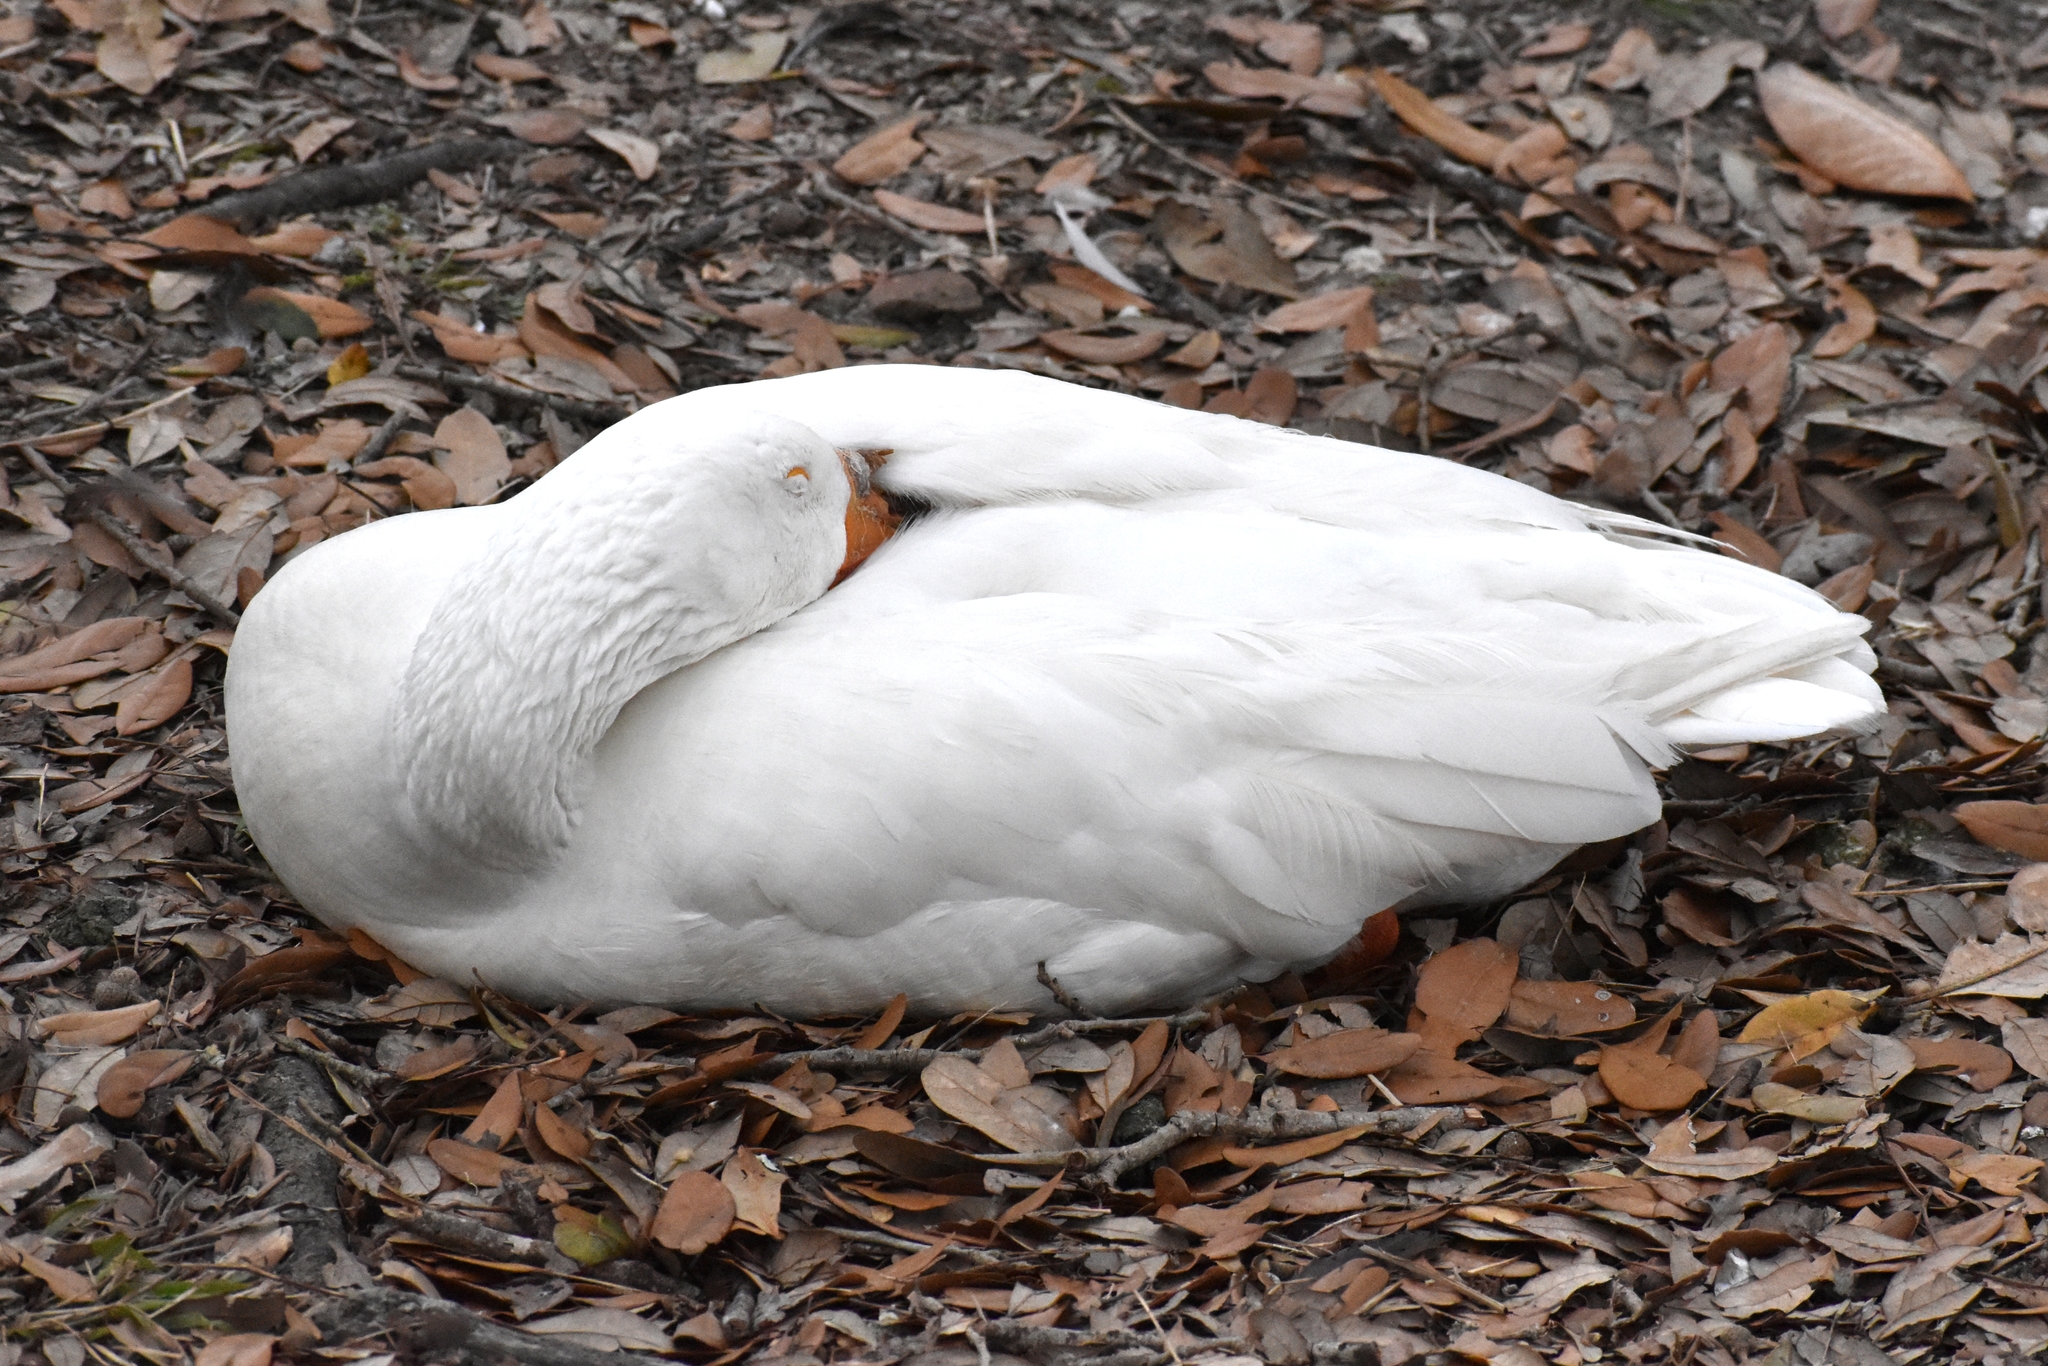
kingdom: Animalia
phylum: Chordata
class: Aves
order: Anseriformes
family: Anatidae
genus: Anser
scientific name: Anser anser
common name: Greylag goose
